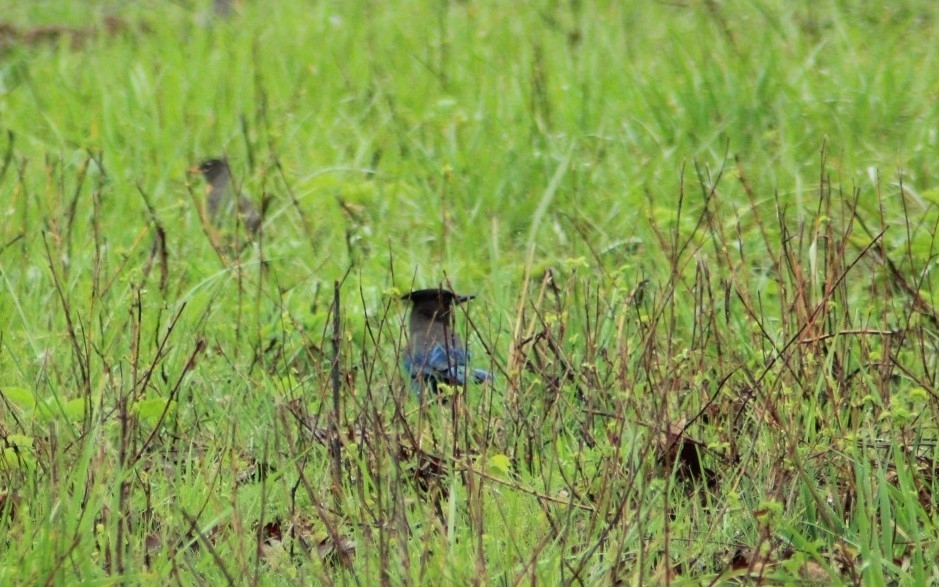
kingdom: Animalia
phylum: Chordata
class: Aves
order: Passeriformes
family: Corvidae
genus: Cyanocitta
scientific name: Cyanocitta stelleri
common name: Steller's jay
